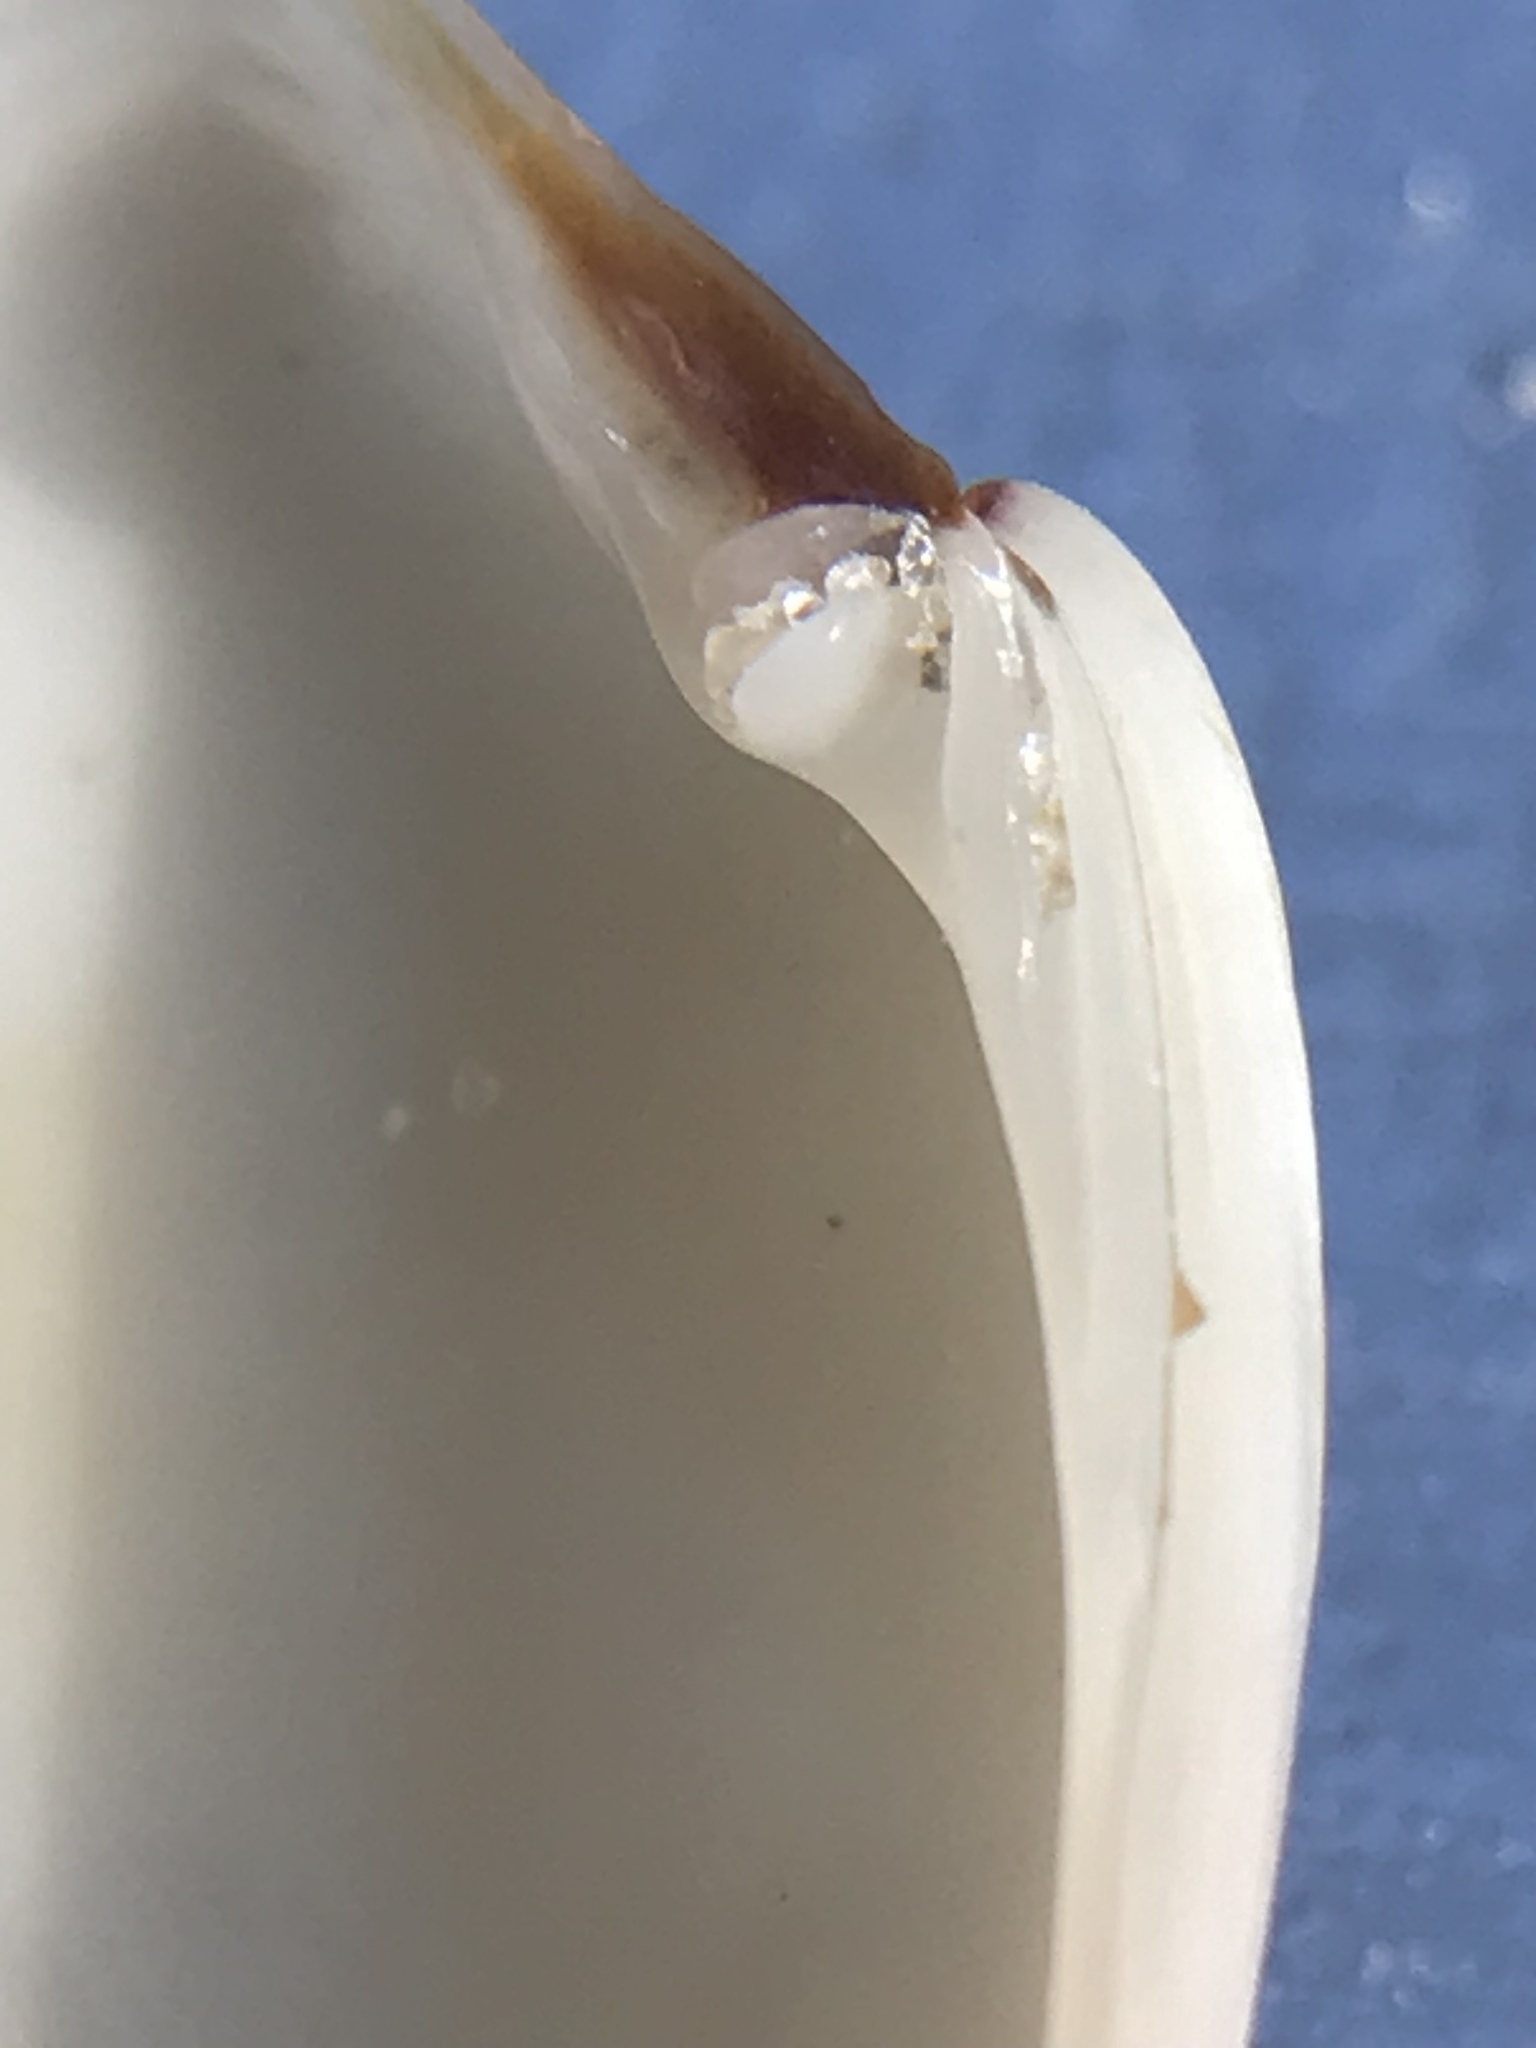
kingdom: Animalia
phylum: Mollusca
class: Bivalvia
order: Venerida
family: Veneridae
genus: Macrocallista
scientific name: Macrocallista nimbosa
